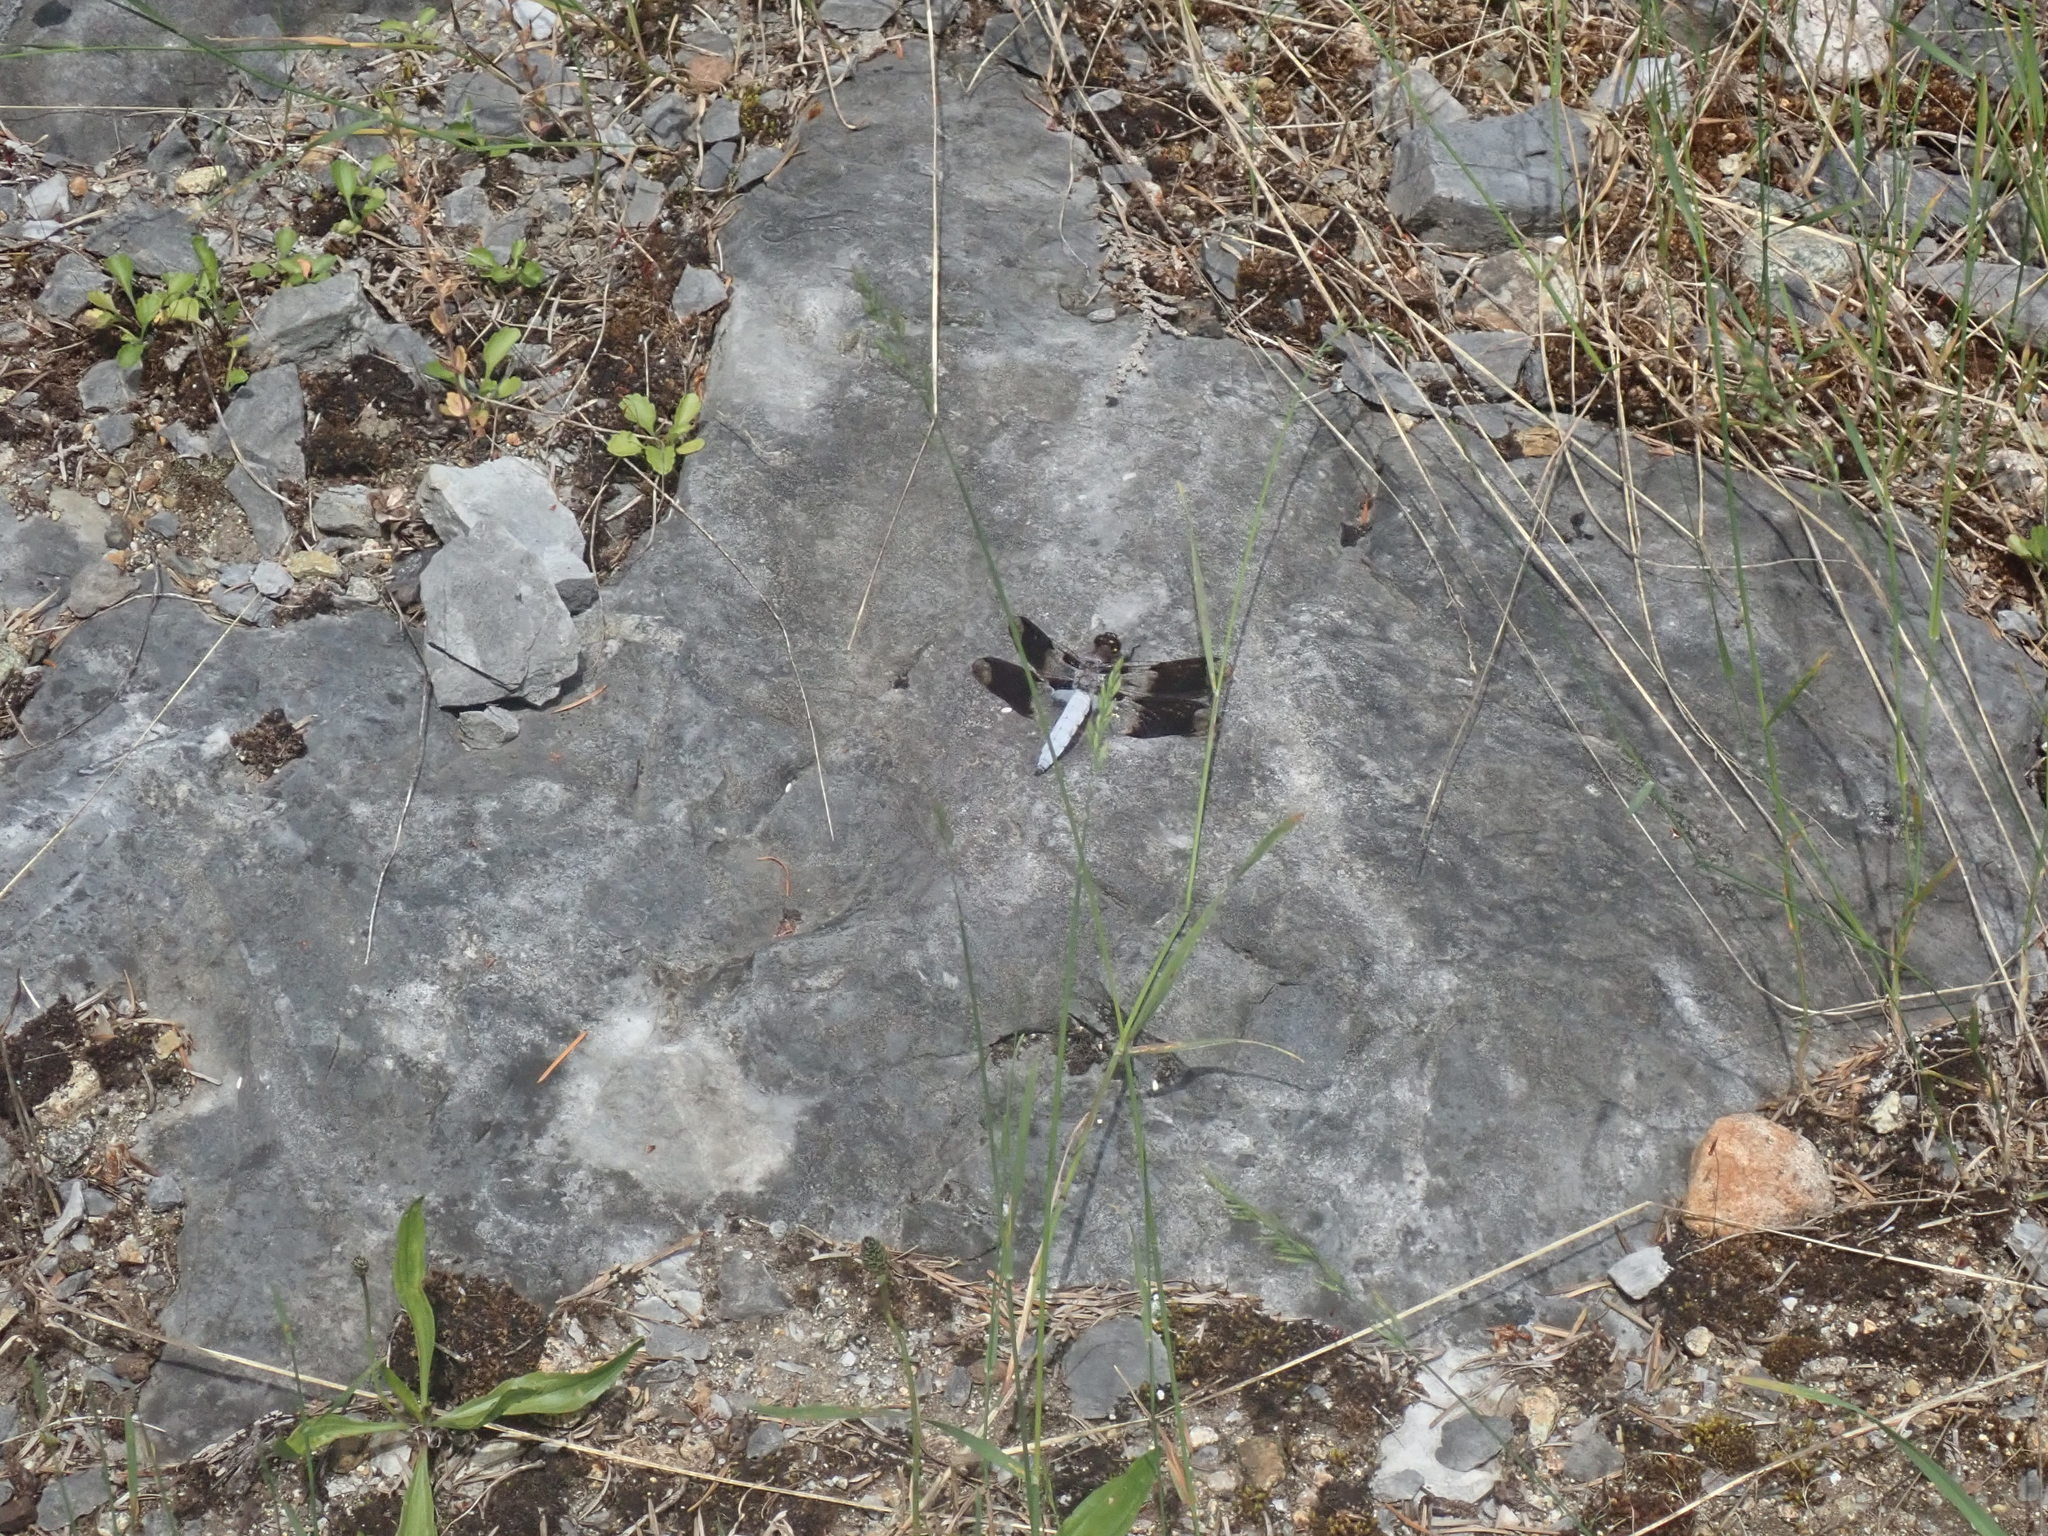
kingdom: Animalia
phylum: Arthropoda
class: Insecta
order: Odonata
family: Libellulidae
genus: Plathemis
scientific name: Plathemis lydia
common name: Common whitetail
